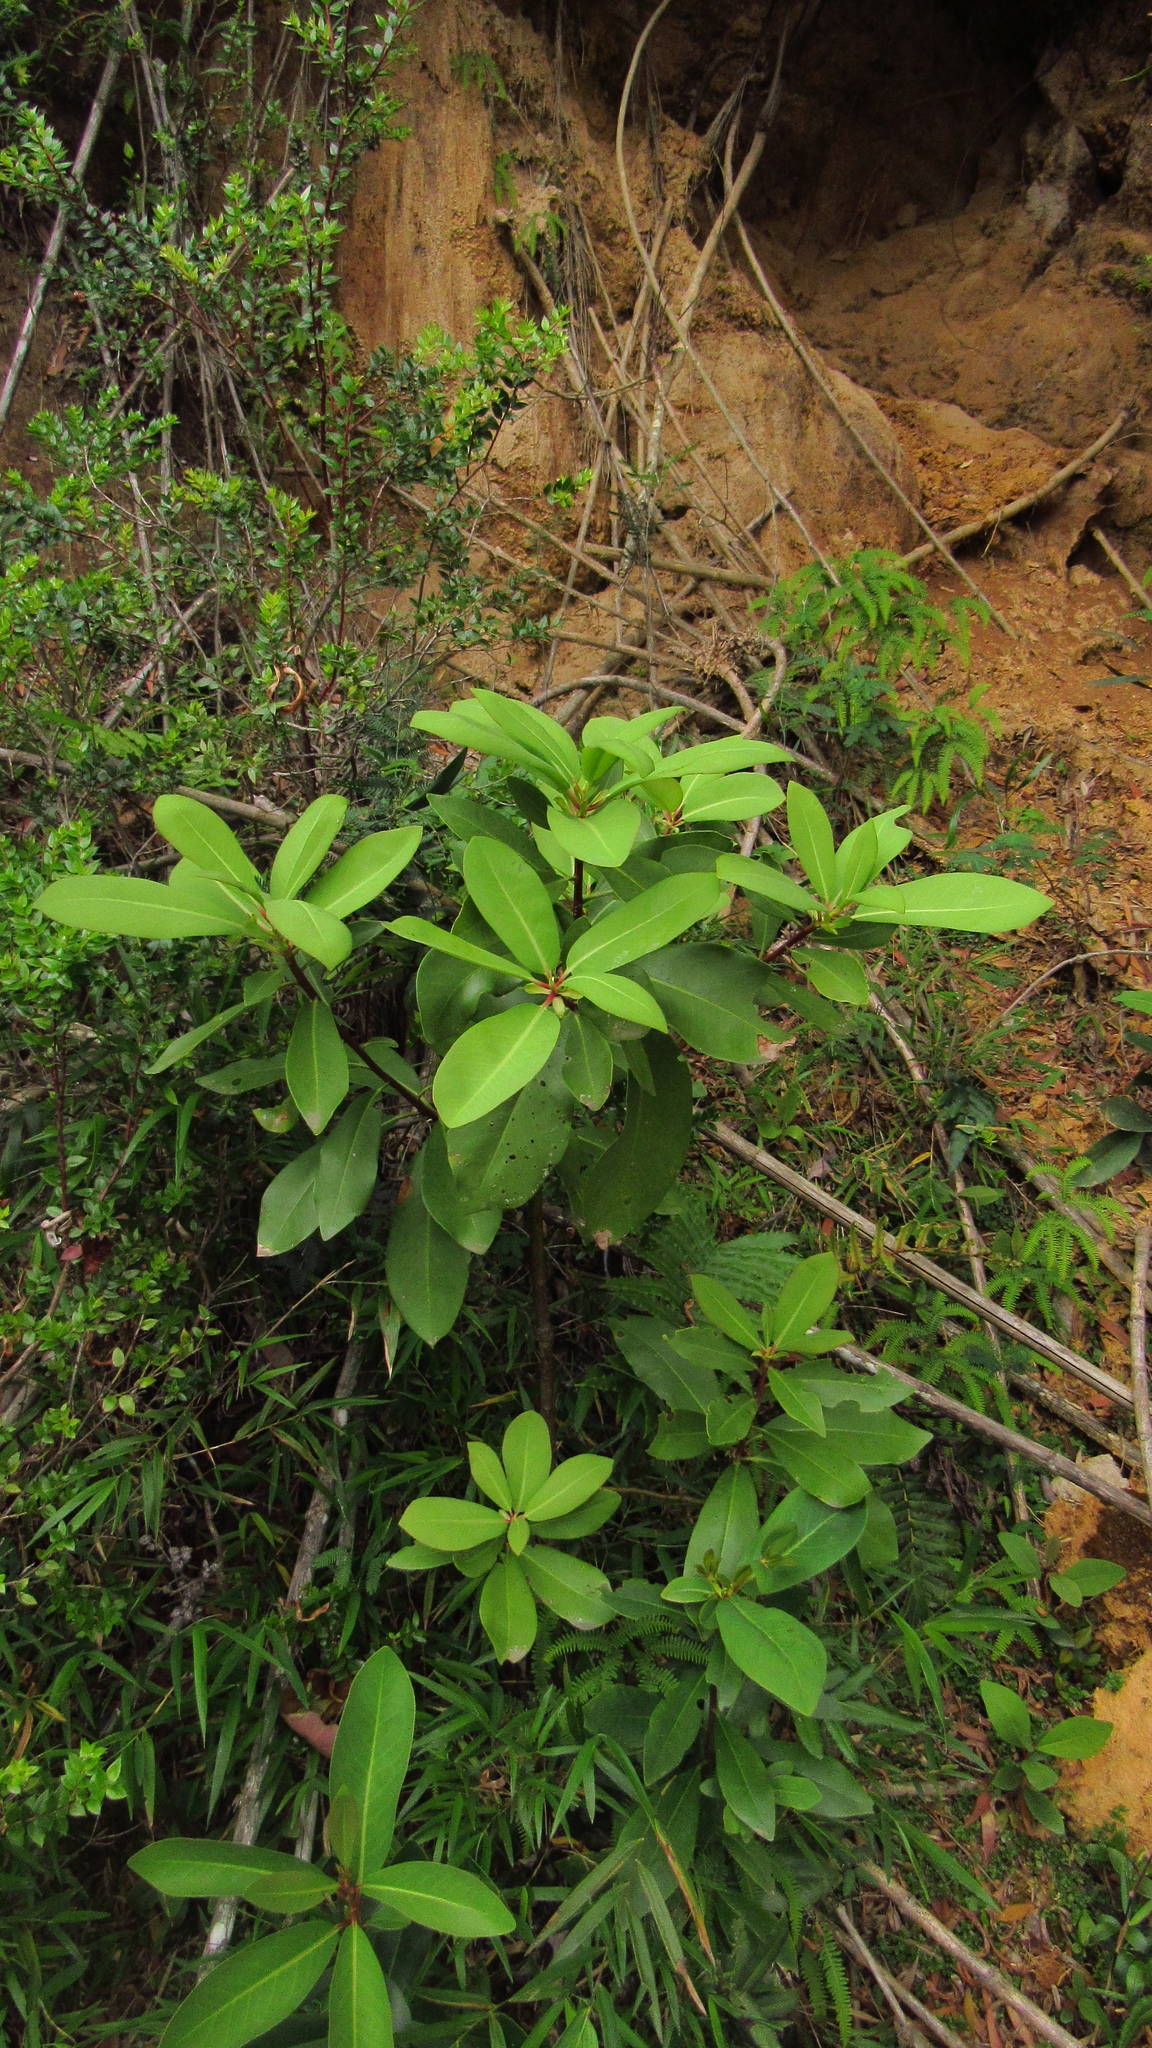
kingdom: Plantae
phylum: Tracheophyta
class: Magnoliopsida
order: Canellales
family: Winteraceae
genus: Drimys
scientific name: Drimys winteri
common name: Winter's-bark
